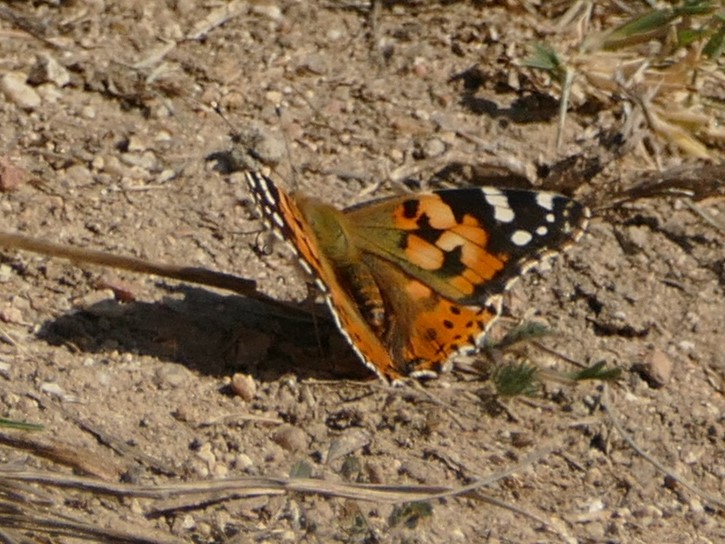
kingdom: Animalia
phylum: Arthropoda
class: Insecta
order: Lepidoptera
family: Nymphalidae
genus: Vanessa
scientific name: Vanessa cardui
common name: Painted lady
